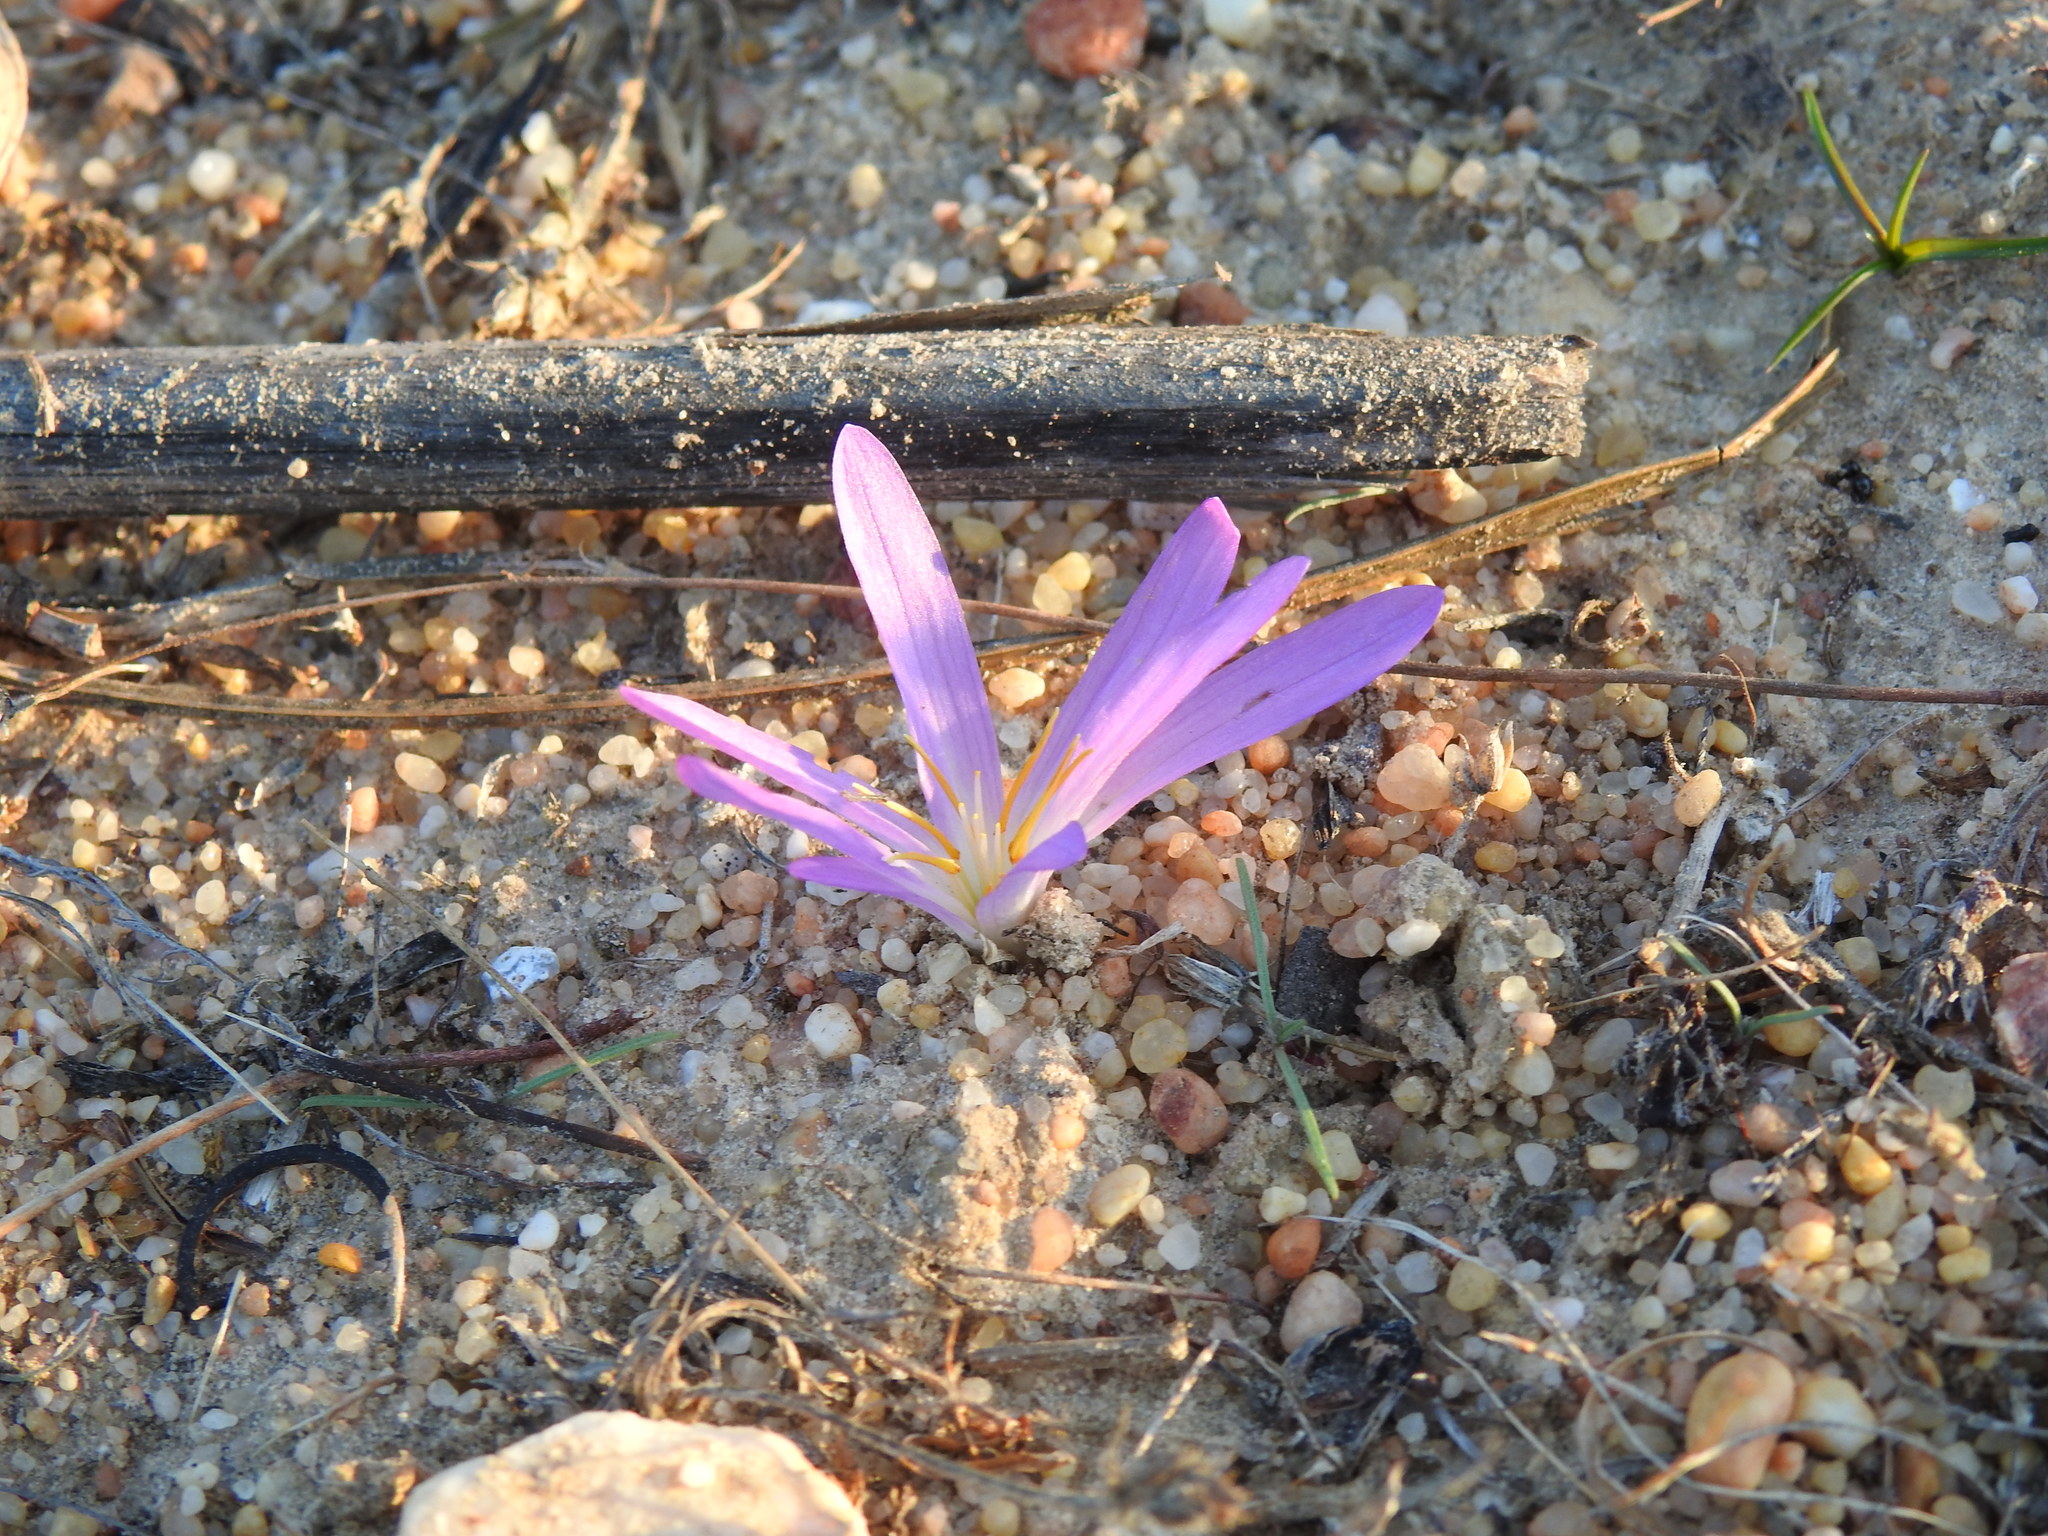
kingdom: Plantae
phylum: Tracheophyta
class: Liliopsida
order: Liliales
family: Colchicaceae
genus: Colchicum
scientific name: Colchicum filifolium
